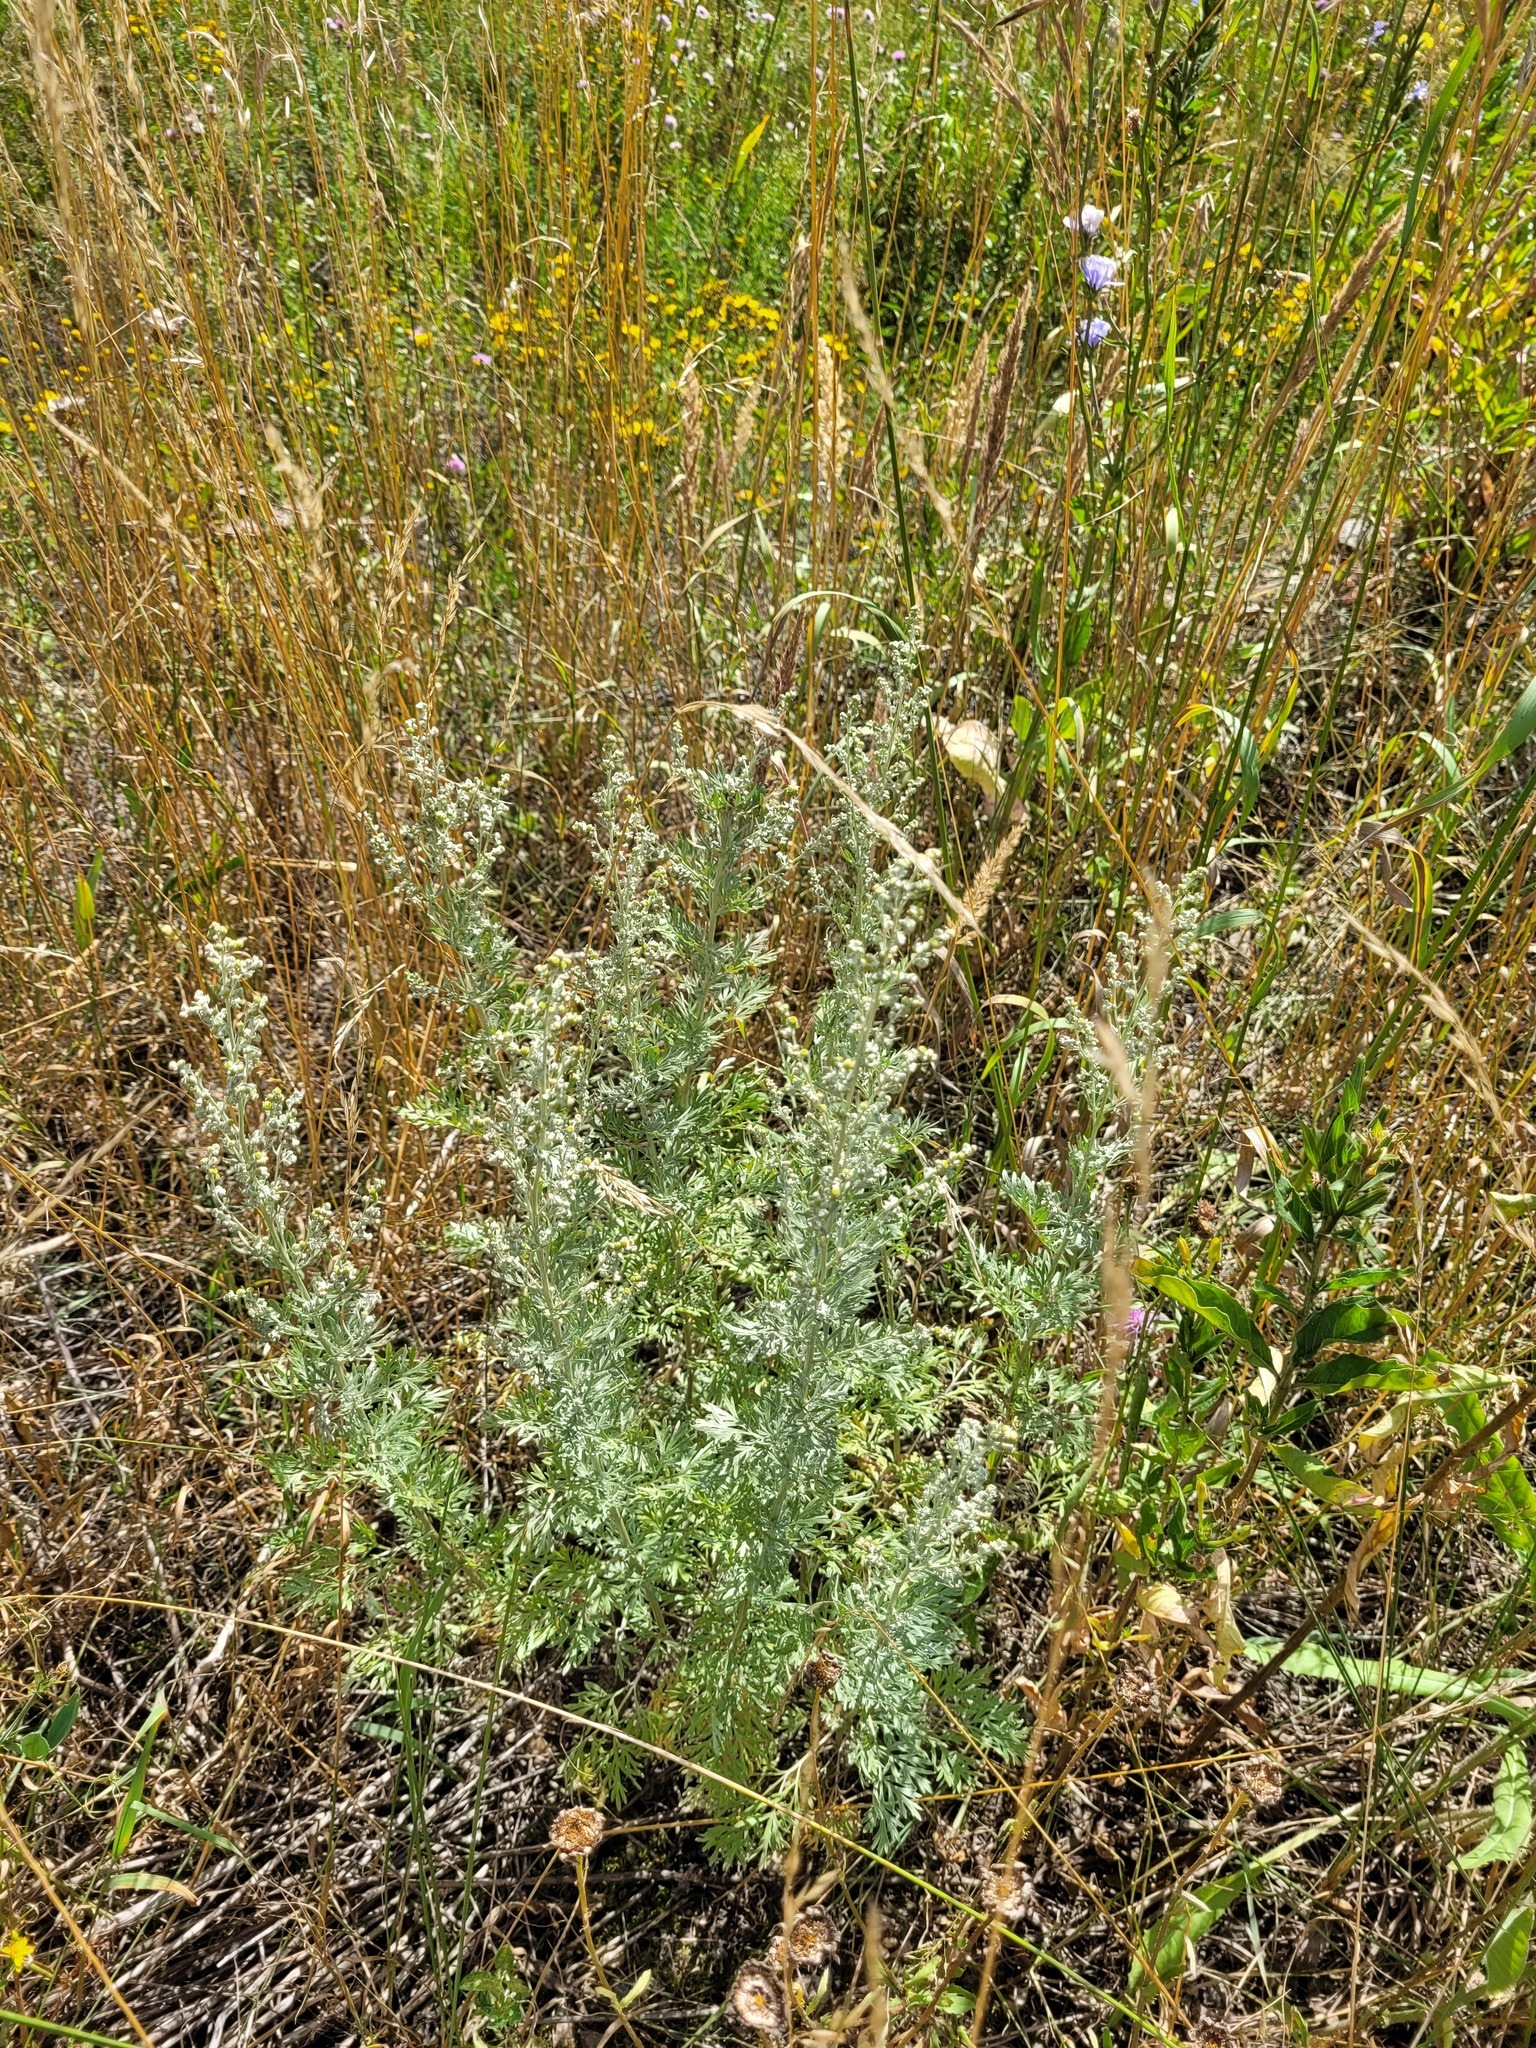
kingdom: Plantae
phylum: Tracheophyta
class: Magnoliopsida
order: Asterales
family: Asteraceae
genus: Artemisia
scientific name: Artemisia absinthium
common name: Wormwood
